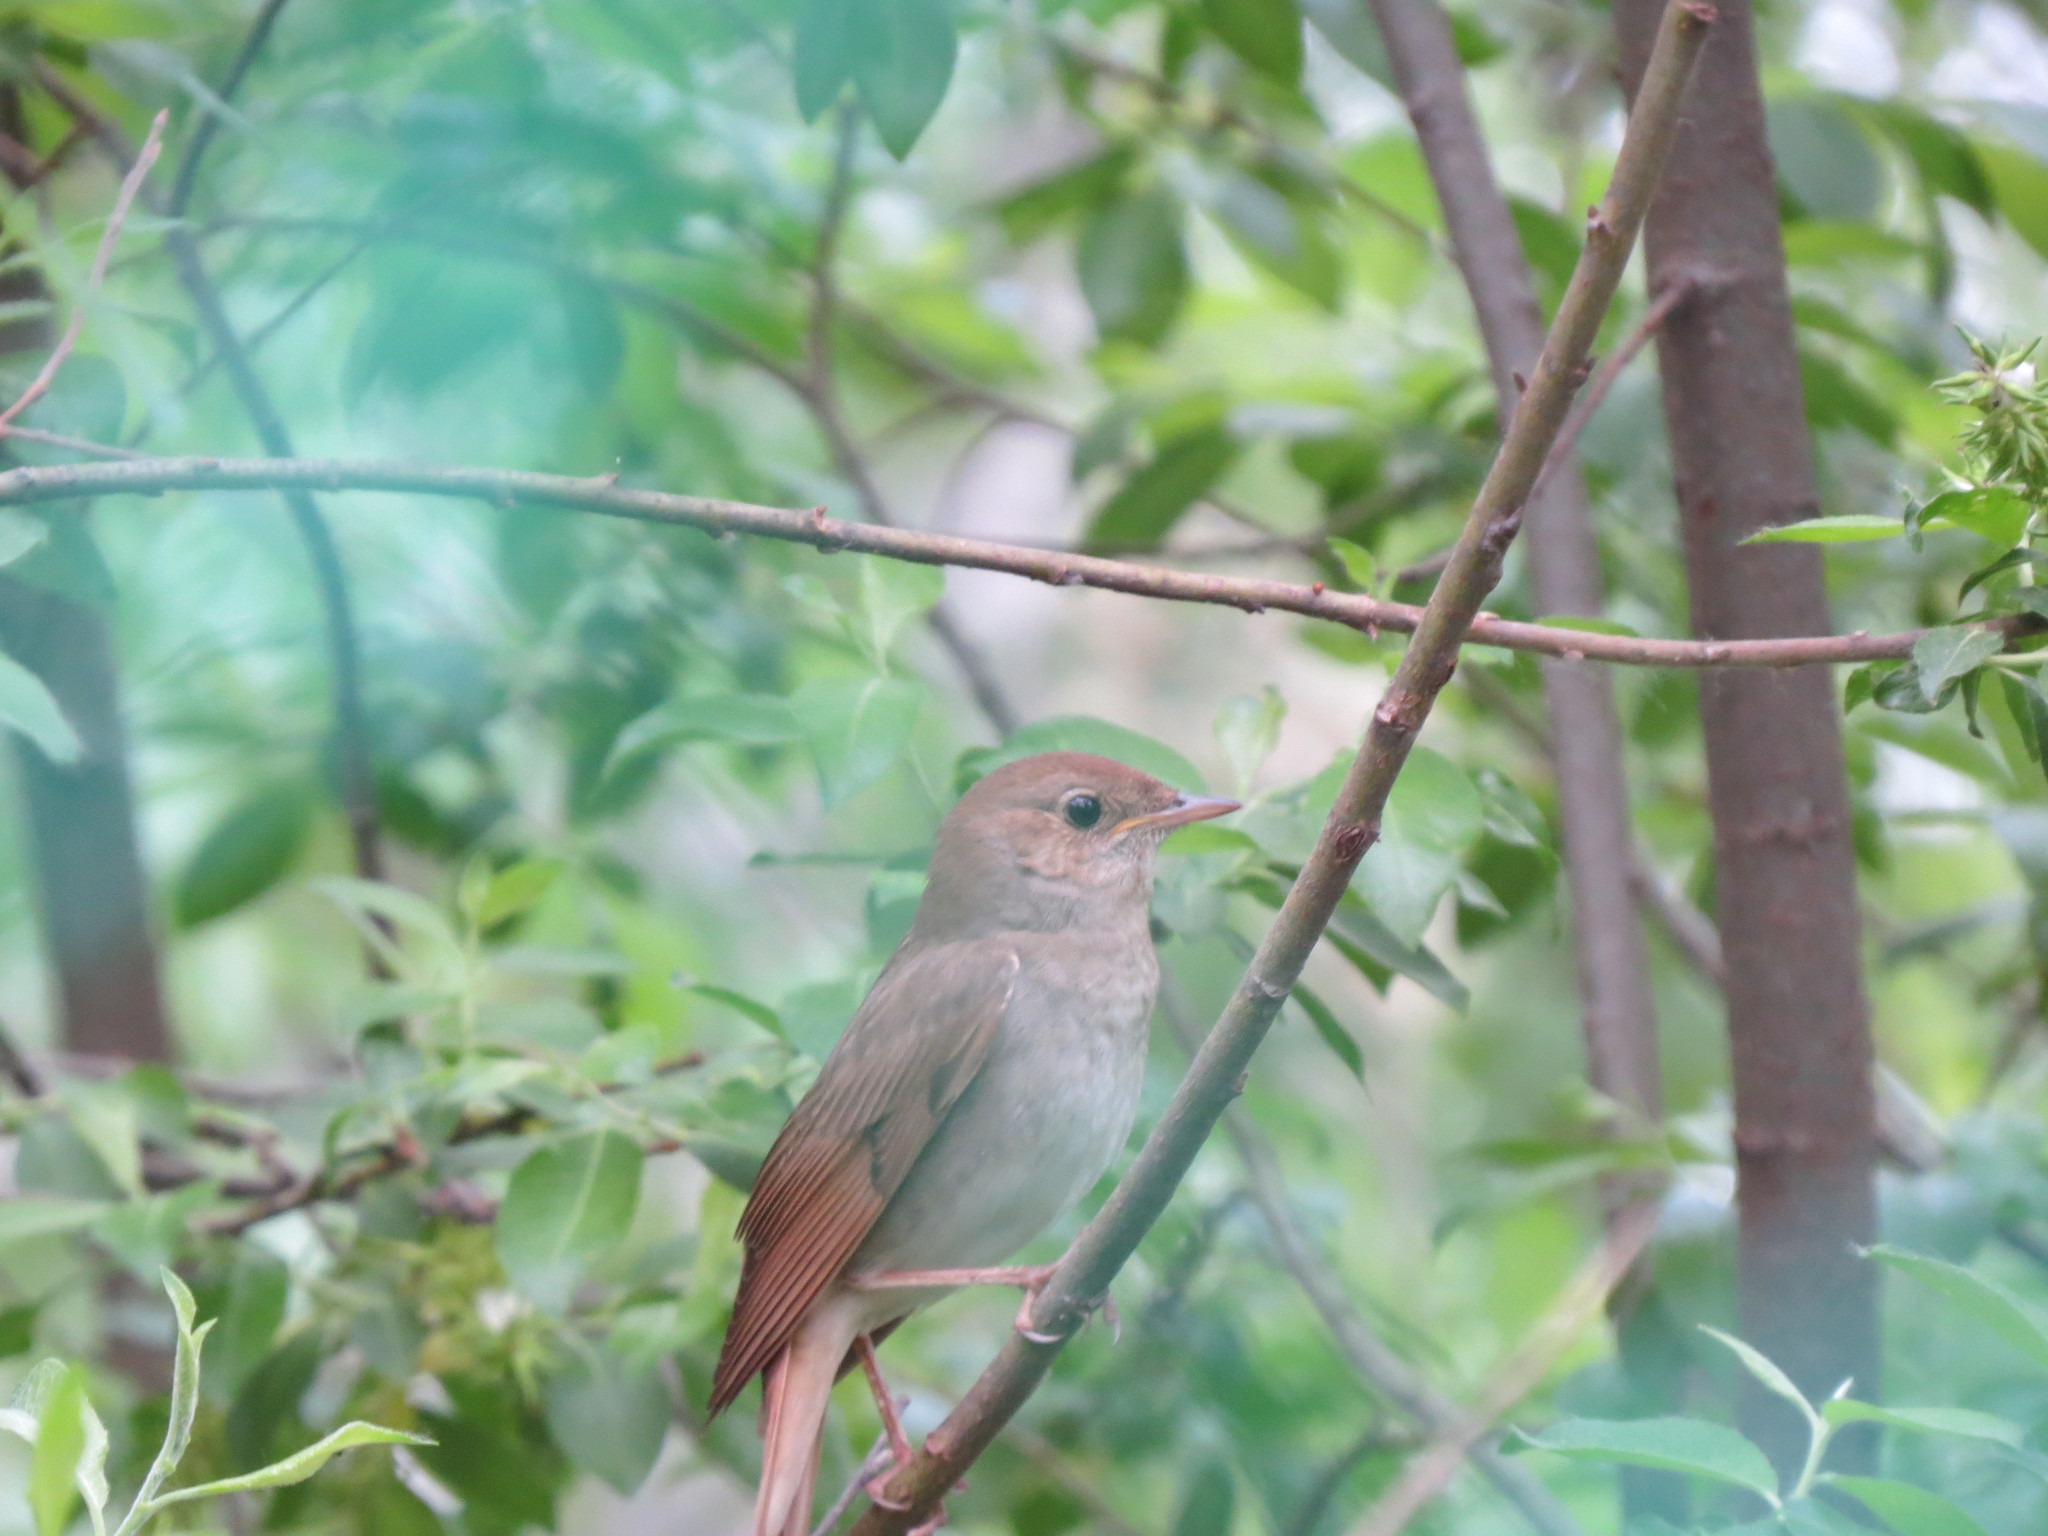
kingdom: Animalia
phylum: Chordata
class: Aves
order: Passeriformes
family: Muscicapidae
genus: Luscinia
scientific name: Luscinia luscinia
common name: Thrush nightingale
